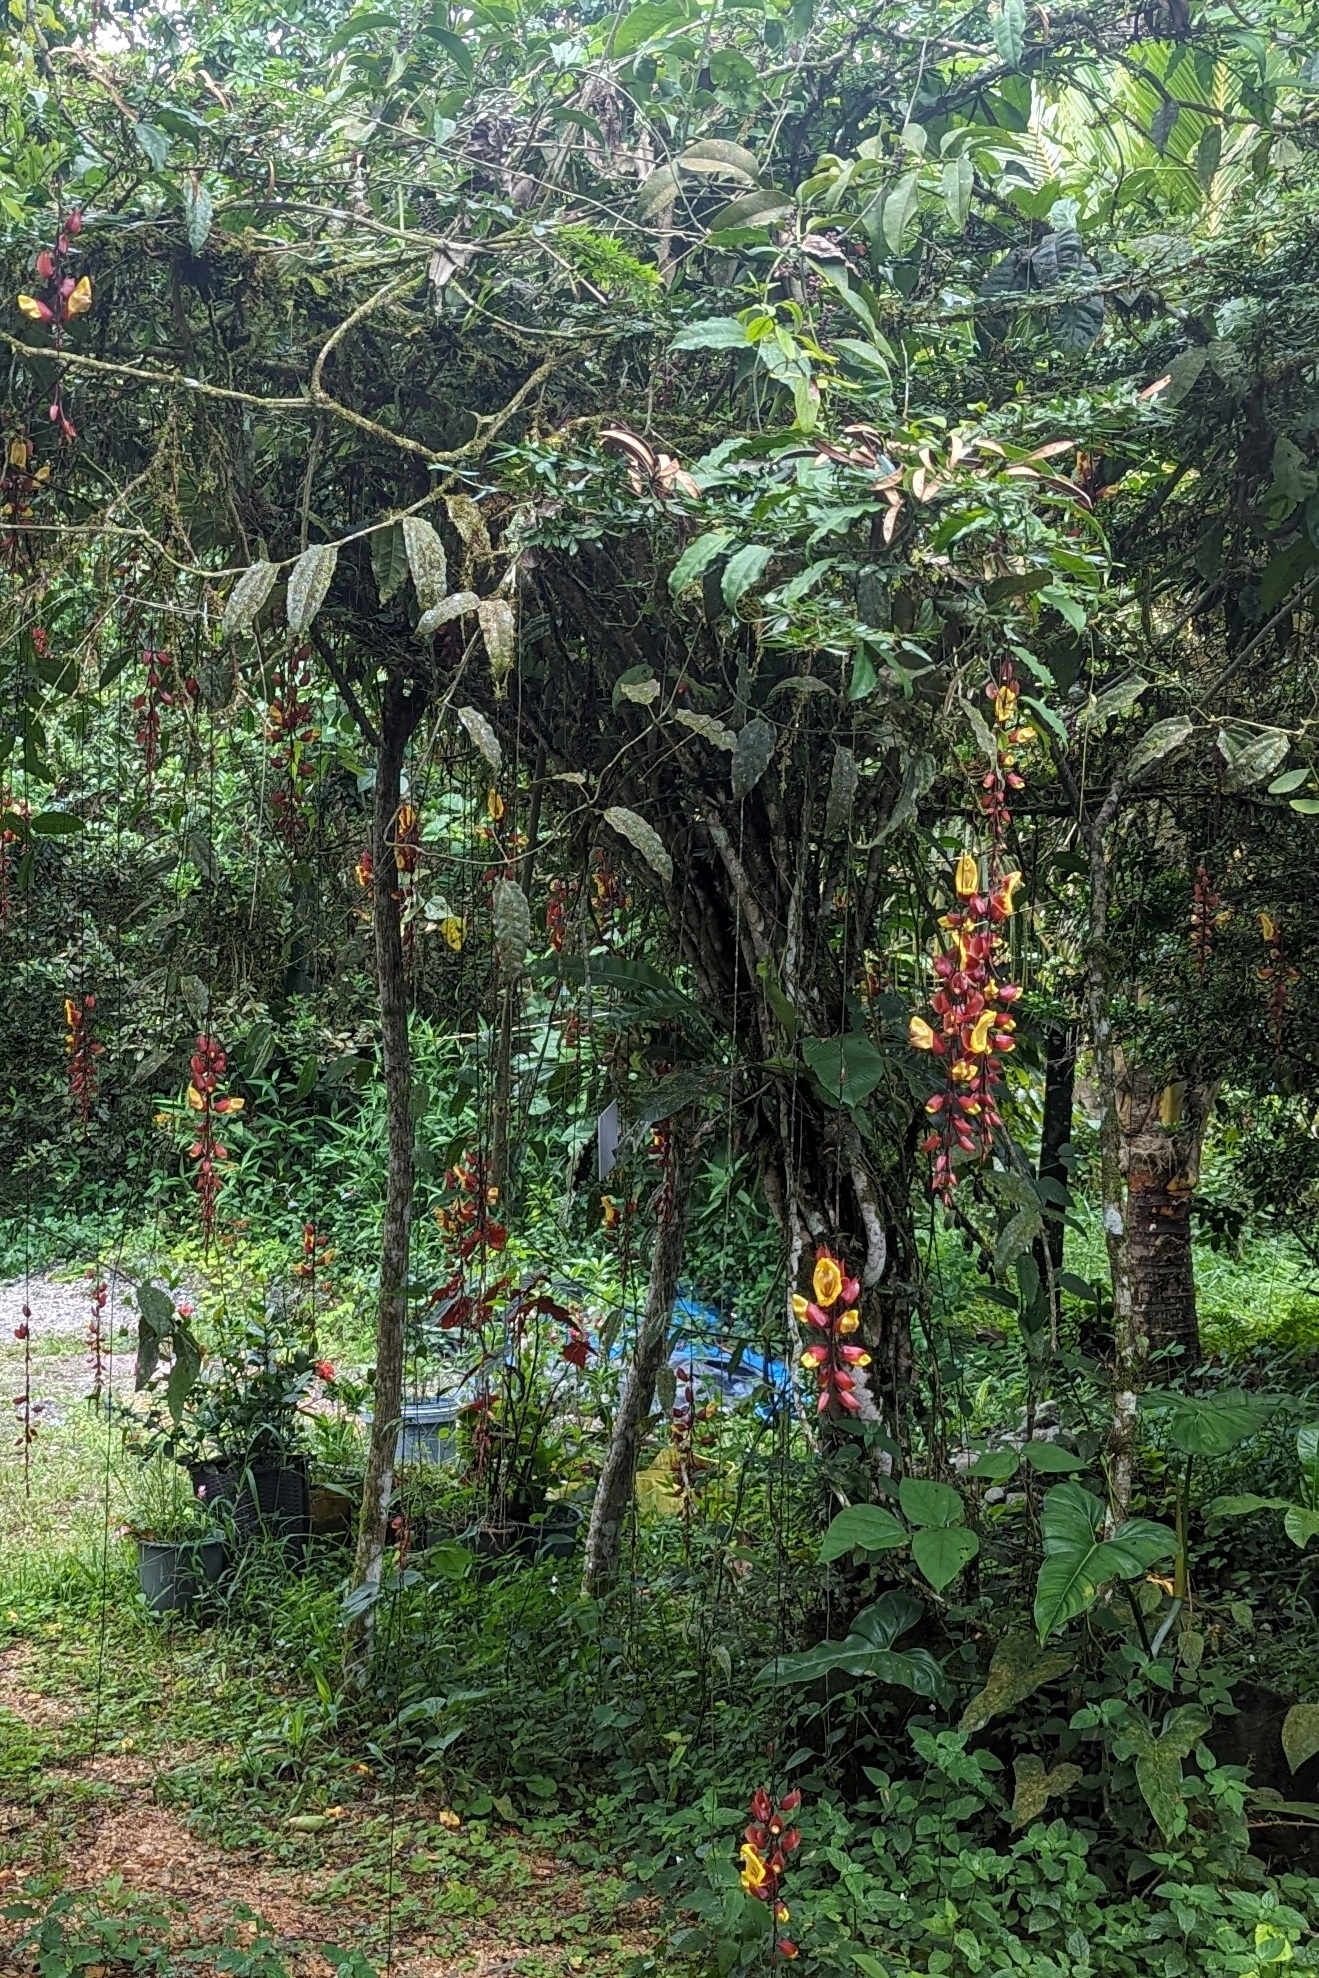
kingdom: Plantae
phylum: Tracheophyta
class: Magnoliopsida
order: Lamiales
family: Acanthaceae
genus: Thunbergia
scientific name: Thunbergia mysorensis
